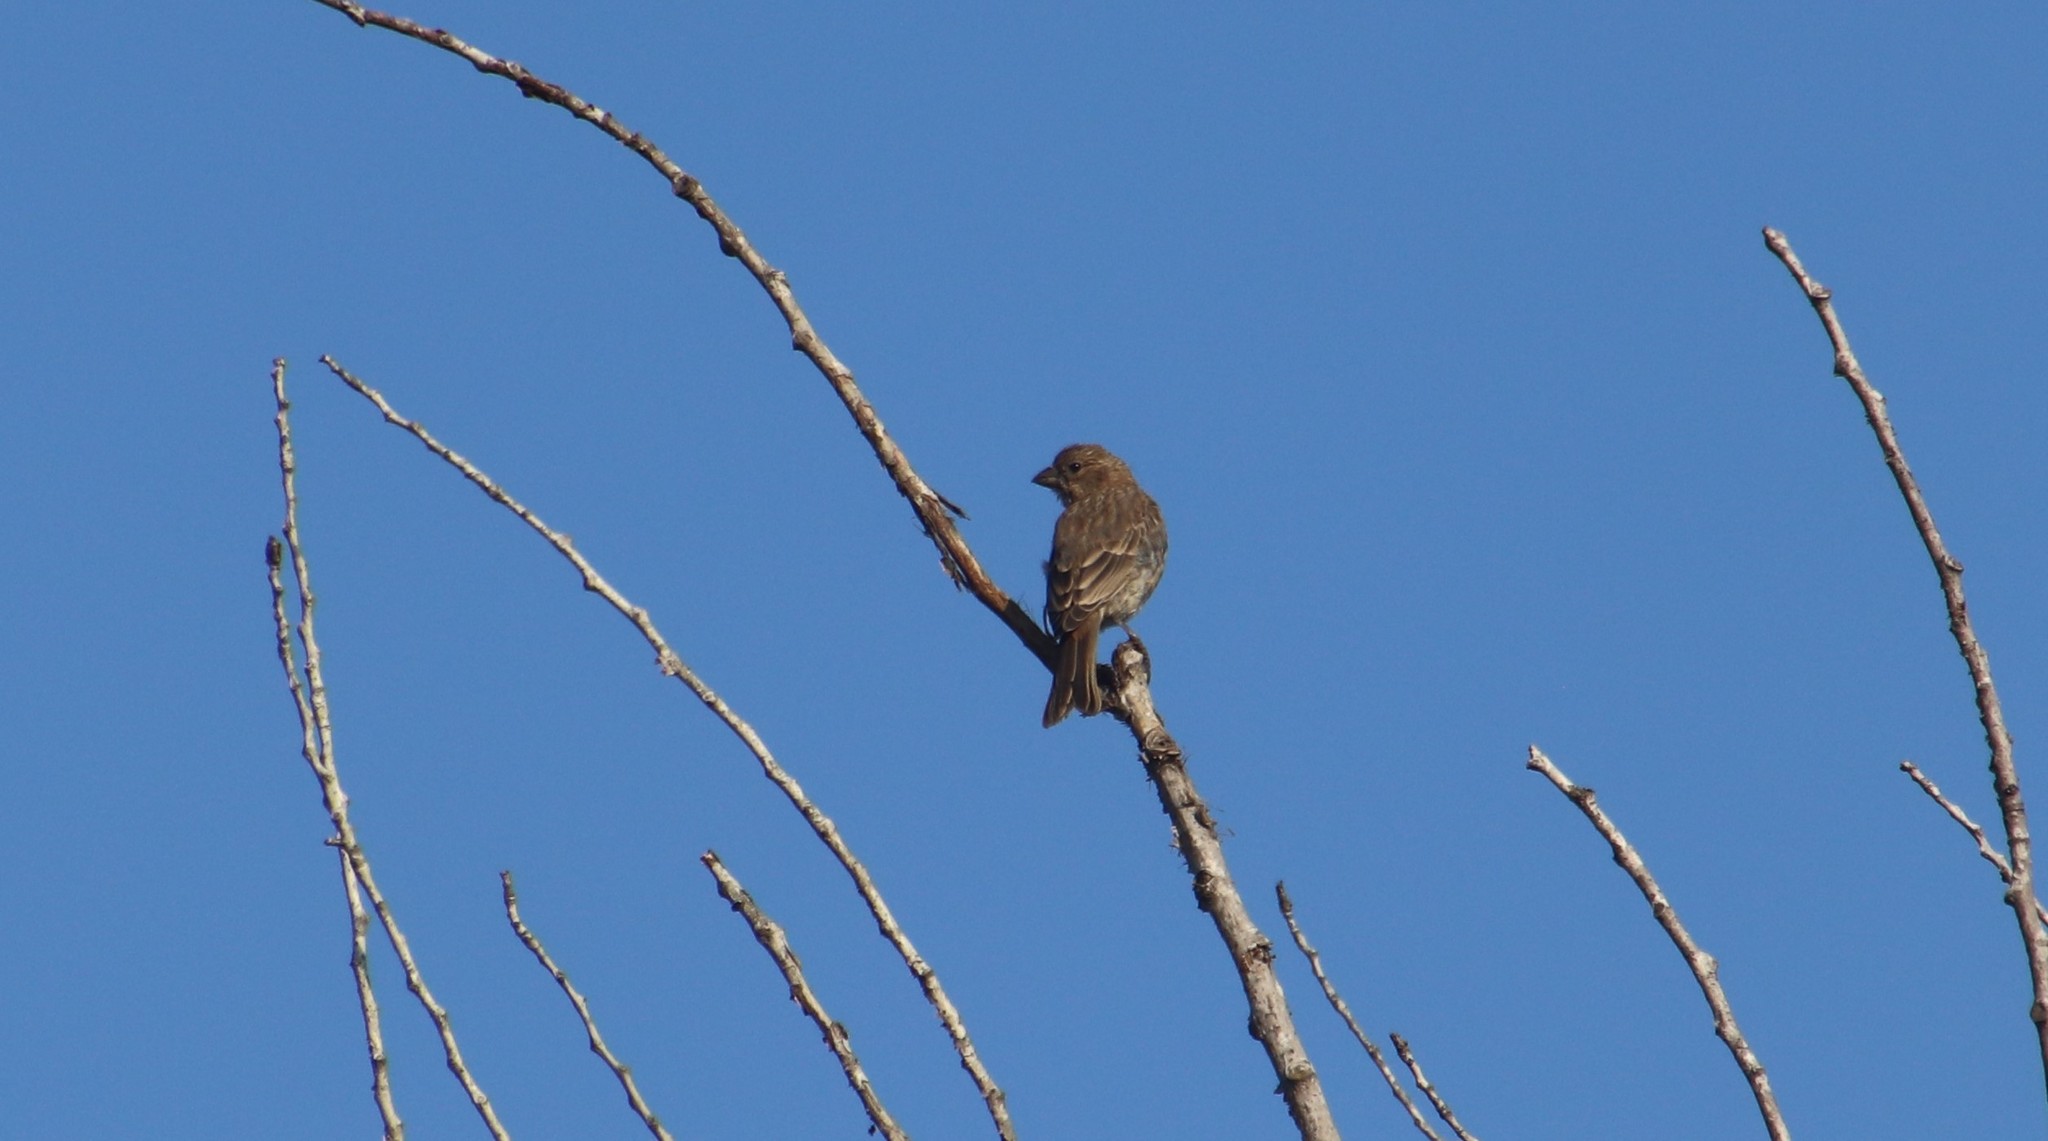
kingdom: Animalia
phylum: Chordata
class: Aves
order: Passeriformes
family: Fringillidae
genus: Haemorhous
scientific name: Haemorhous mexicanus
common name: House finch
